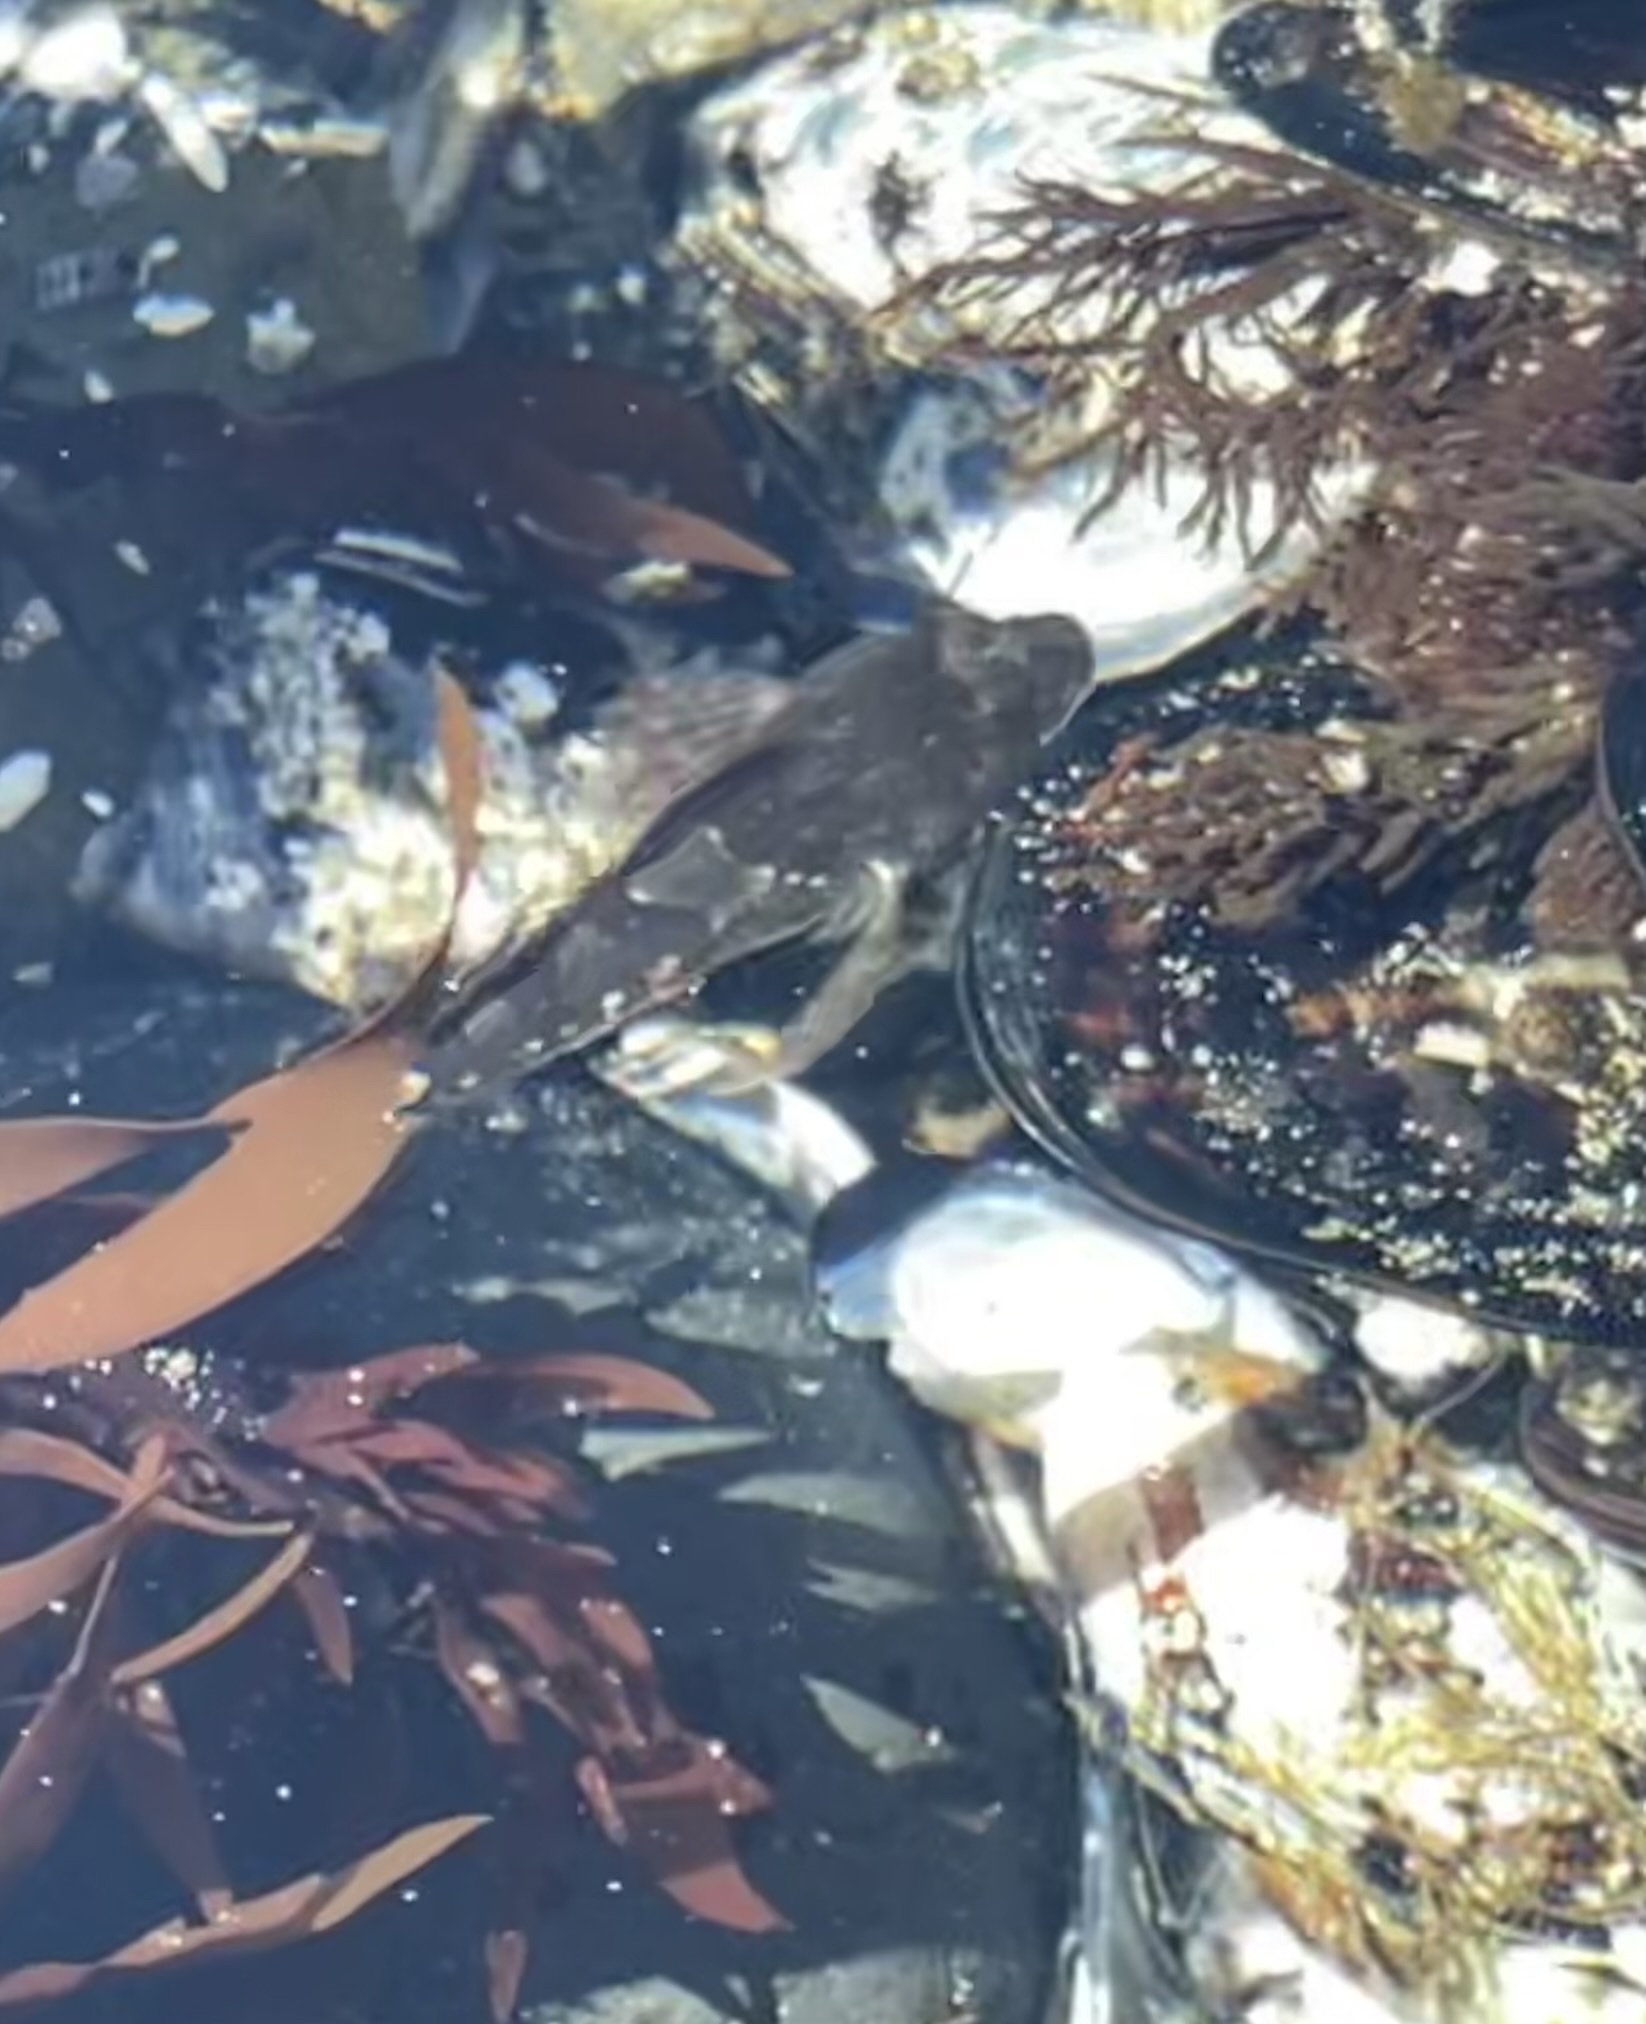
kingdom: Animalia
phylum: Chordata
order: Scorpaeniformes
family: Cottidae
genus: Oligocottus
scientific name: Oligocottus maculosus
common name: Tidepool sculpin
